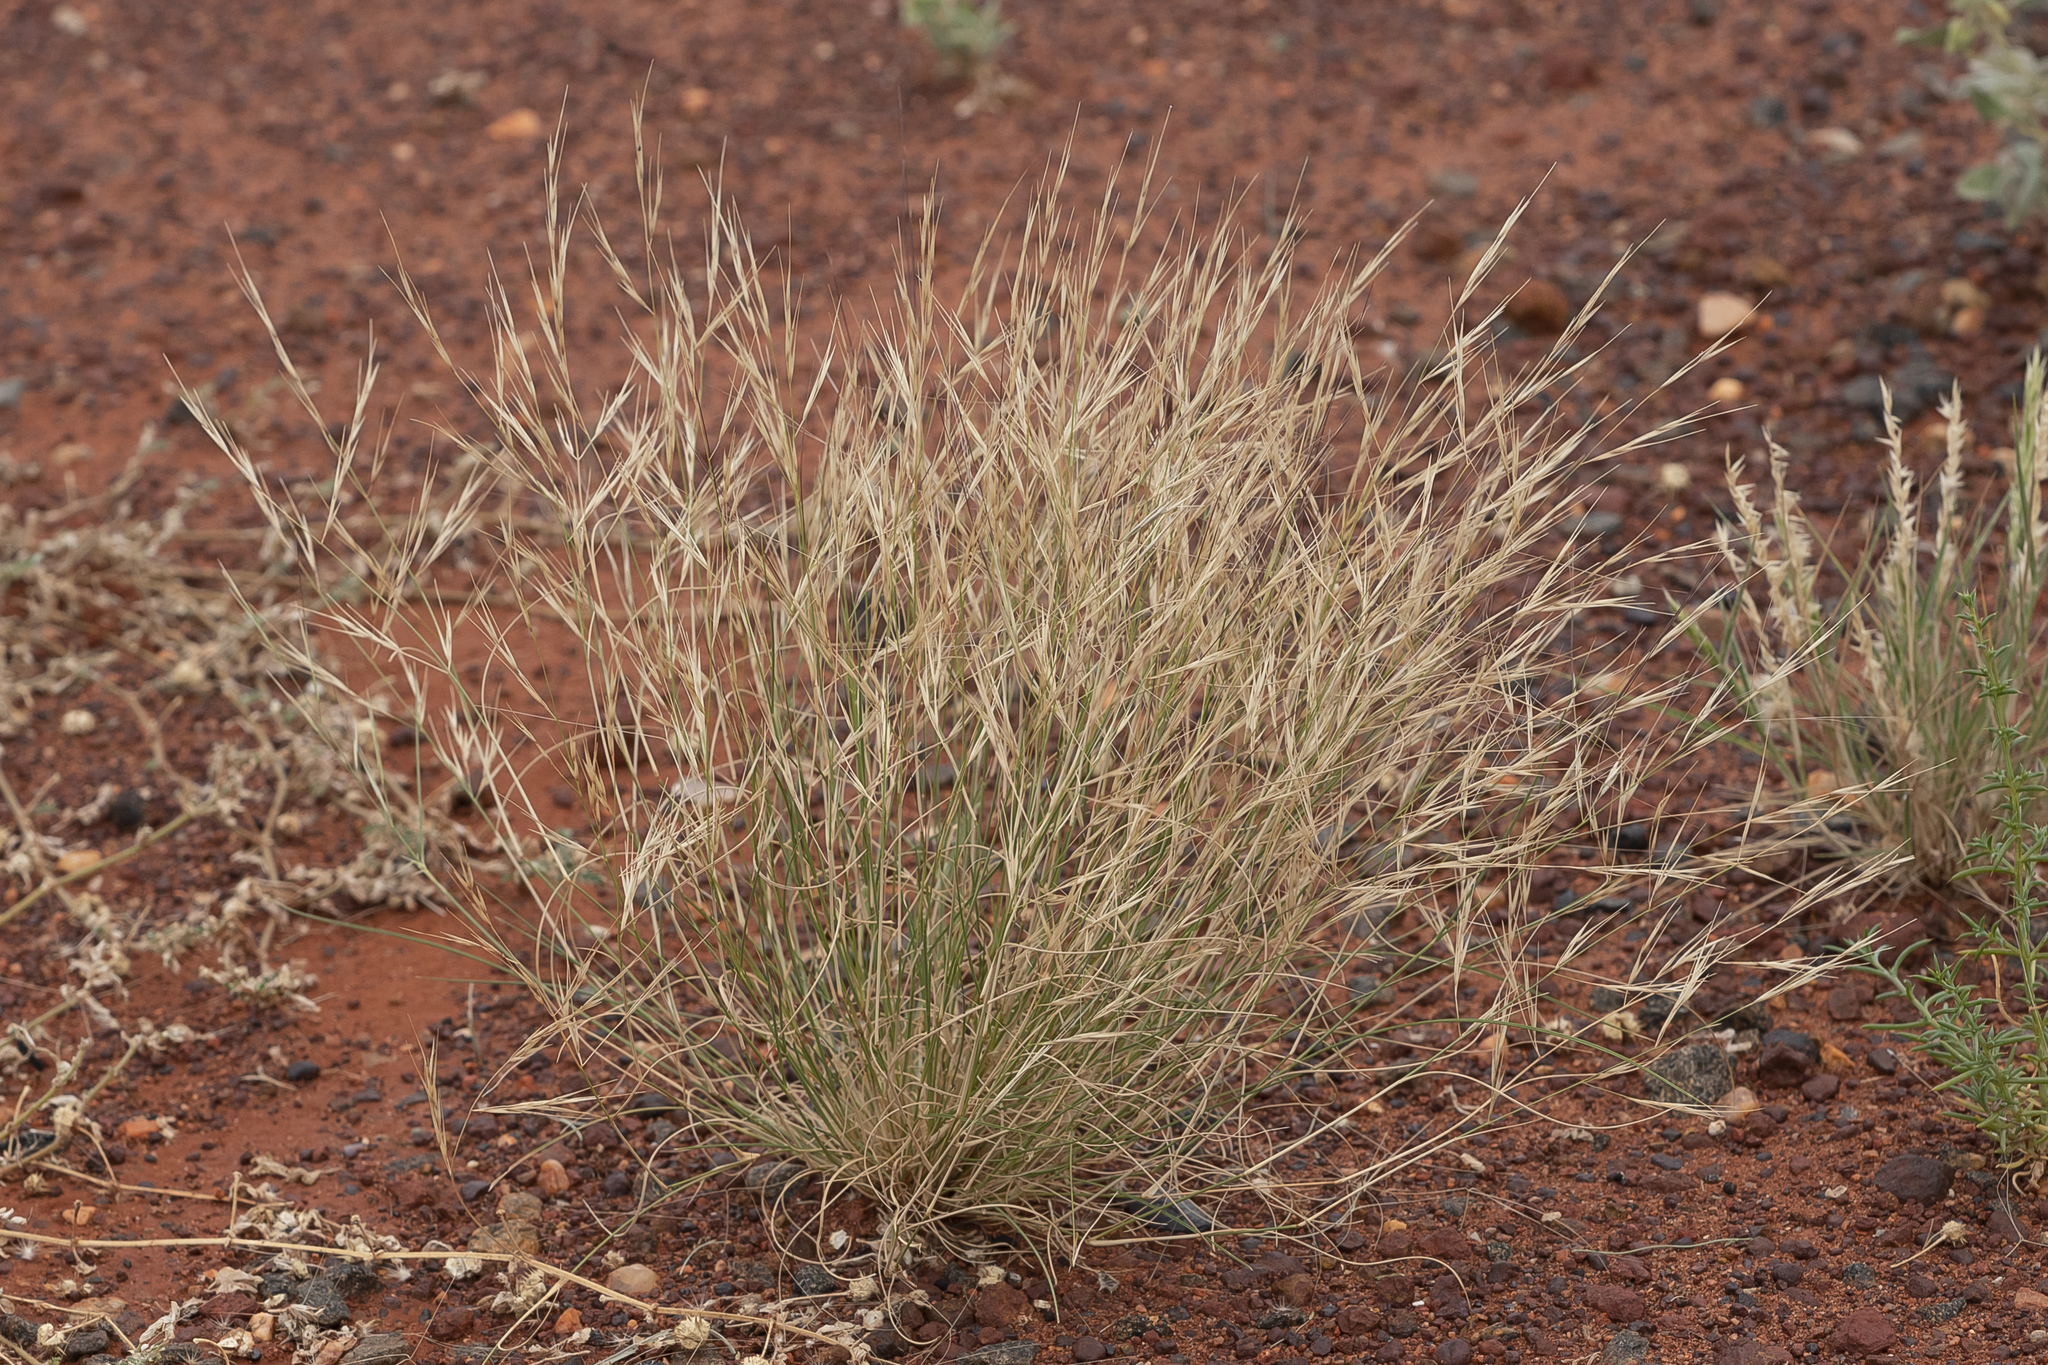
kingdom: Plantae
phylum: Tracheophyta
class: Liliopsida
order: Poales
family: Poaceae
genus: Aristida
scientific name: Aristida contorta
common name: Bunch kerosene grass
